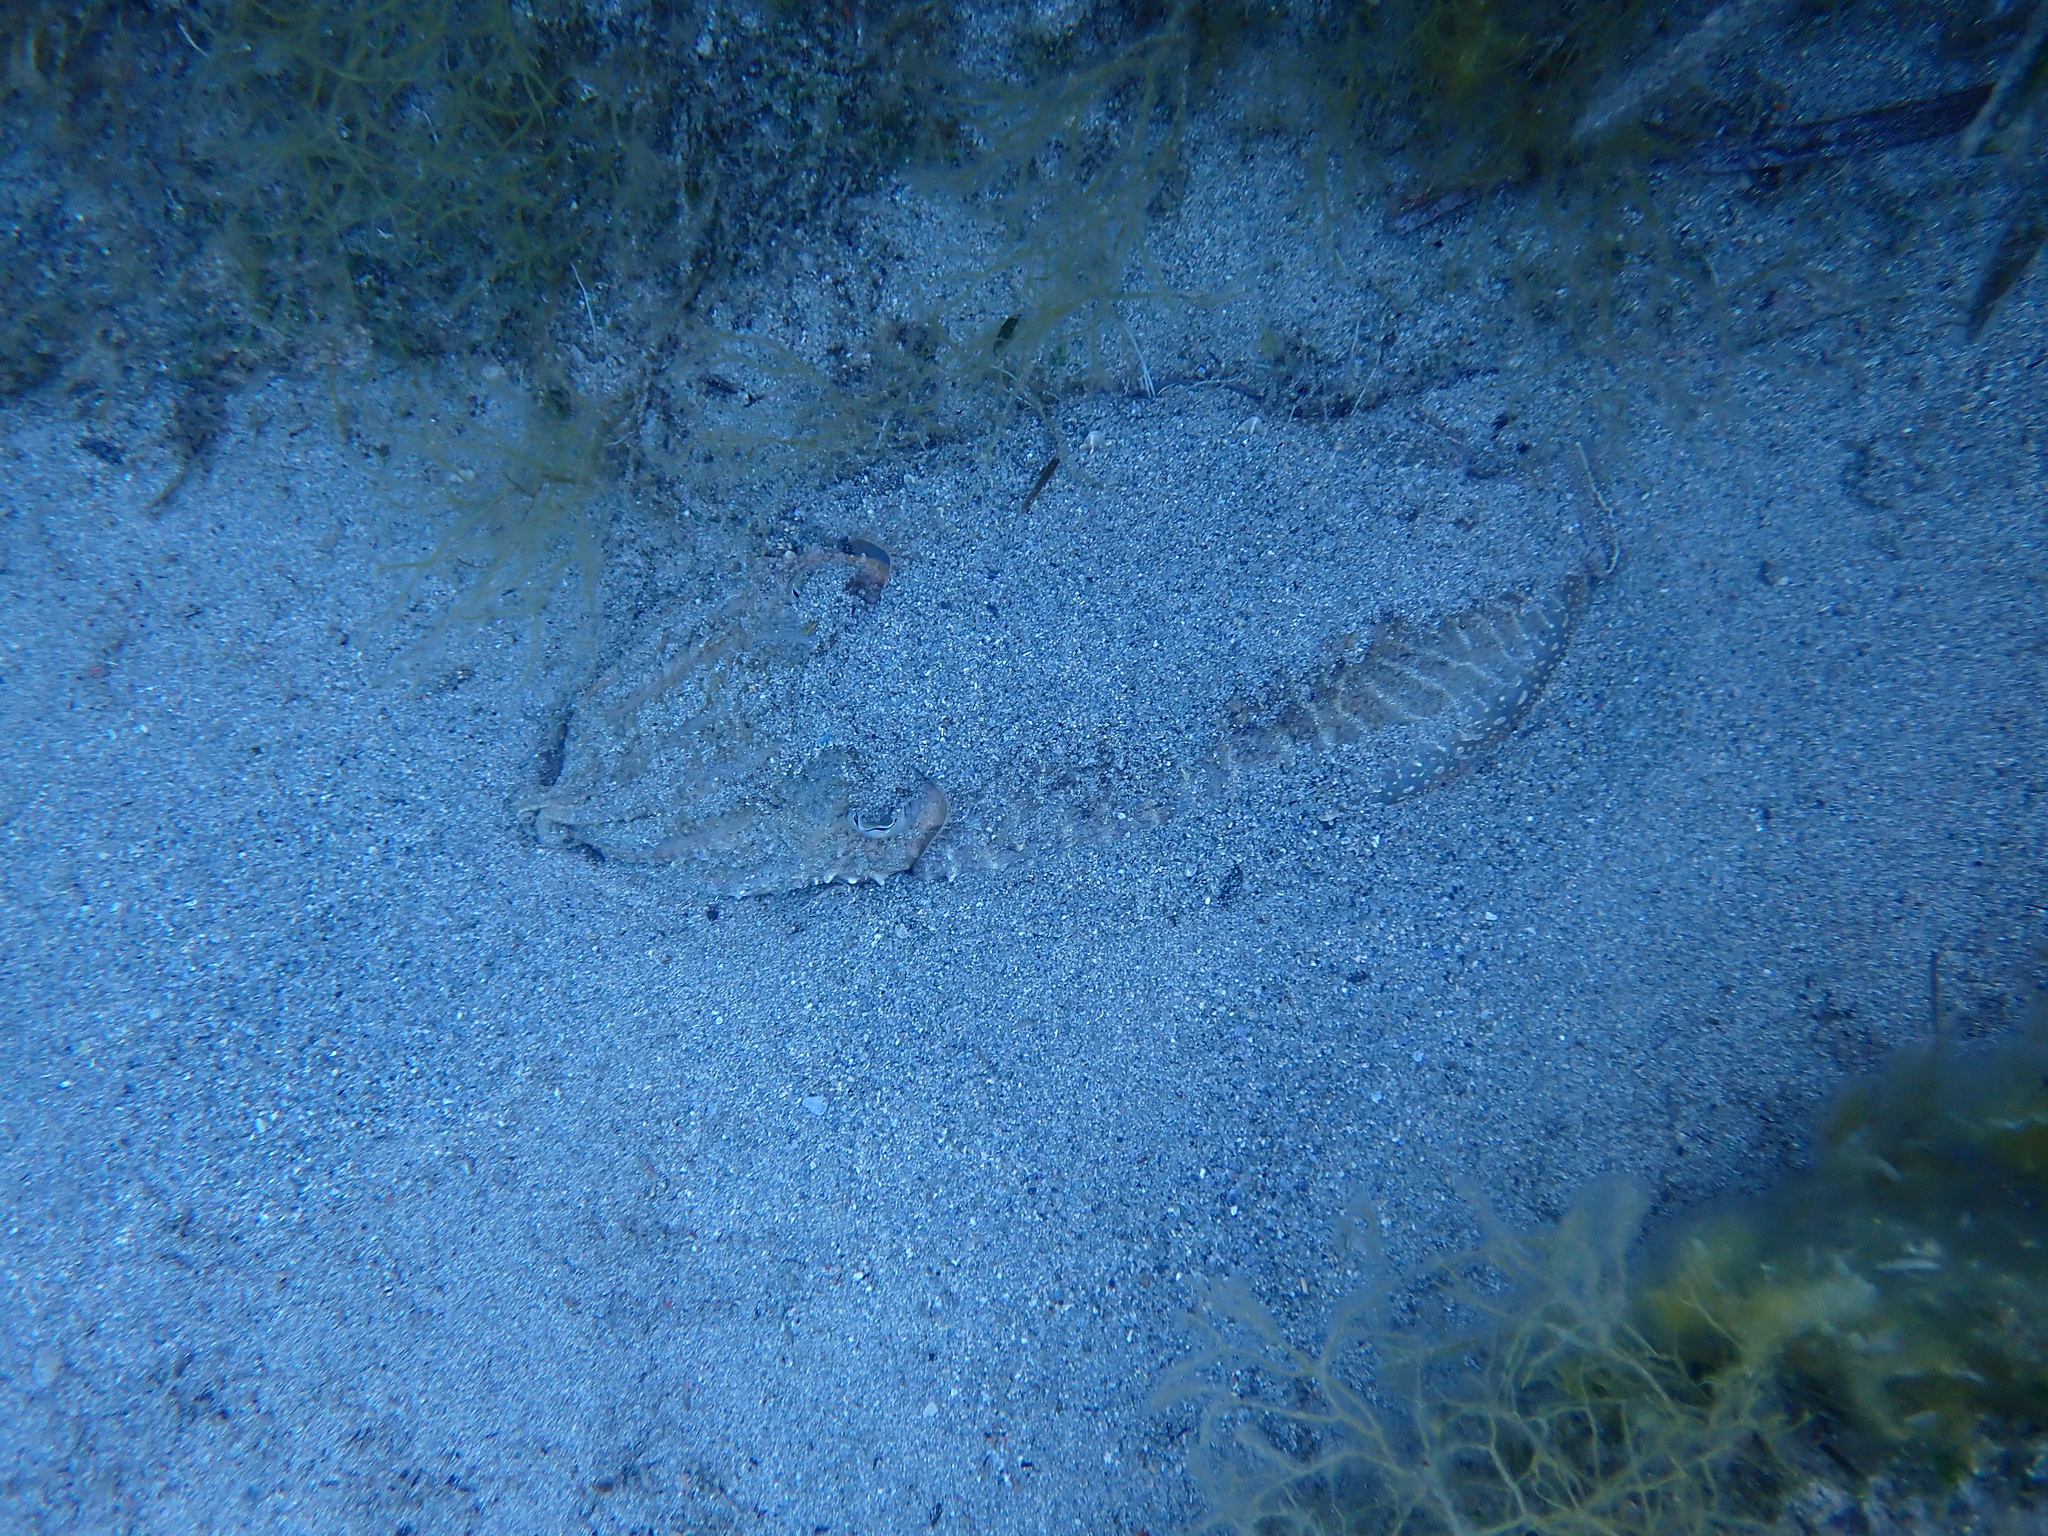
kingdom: Animalia
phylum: Mollusca
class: Cephalopoda
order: Sepiida
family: Sepiidae
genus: Sepia
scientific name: Sepia officinalis
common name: Common cuttlefish
